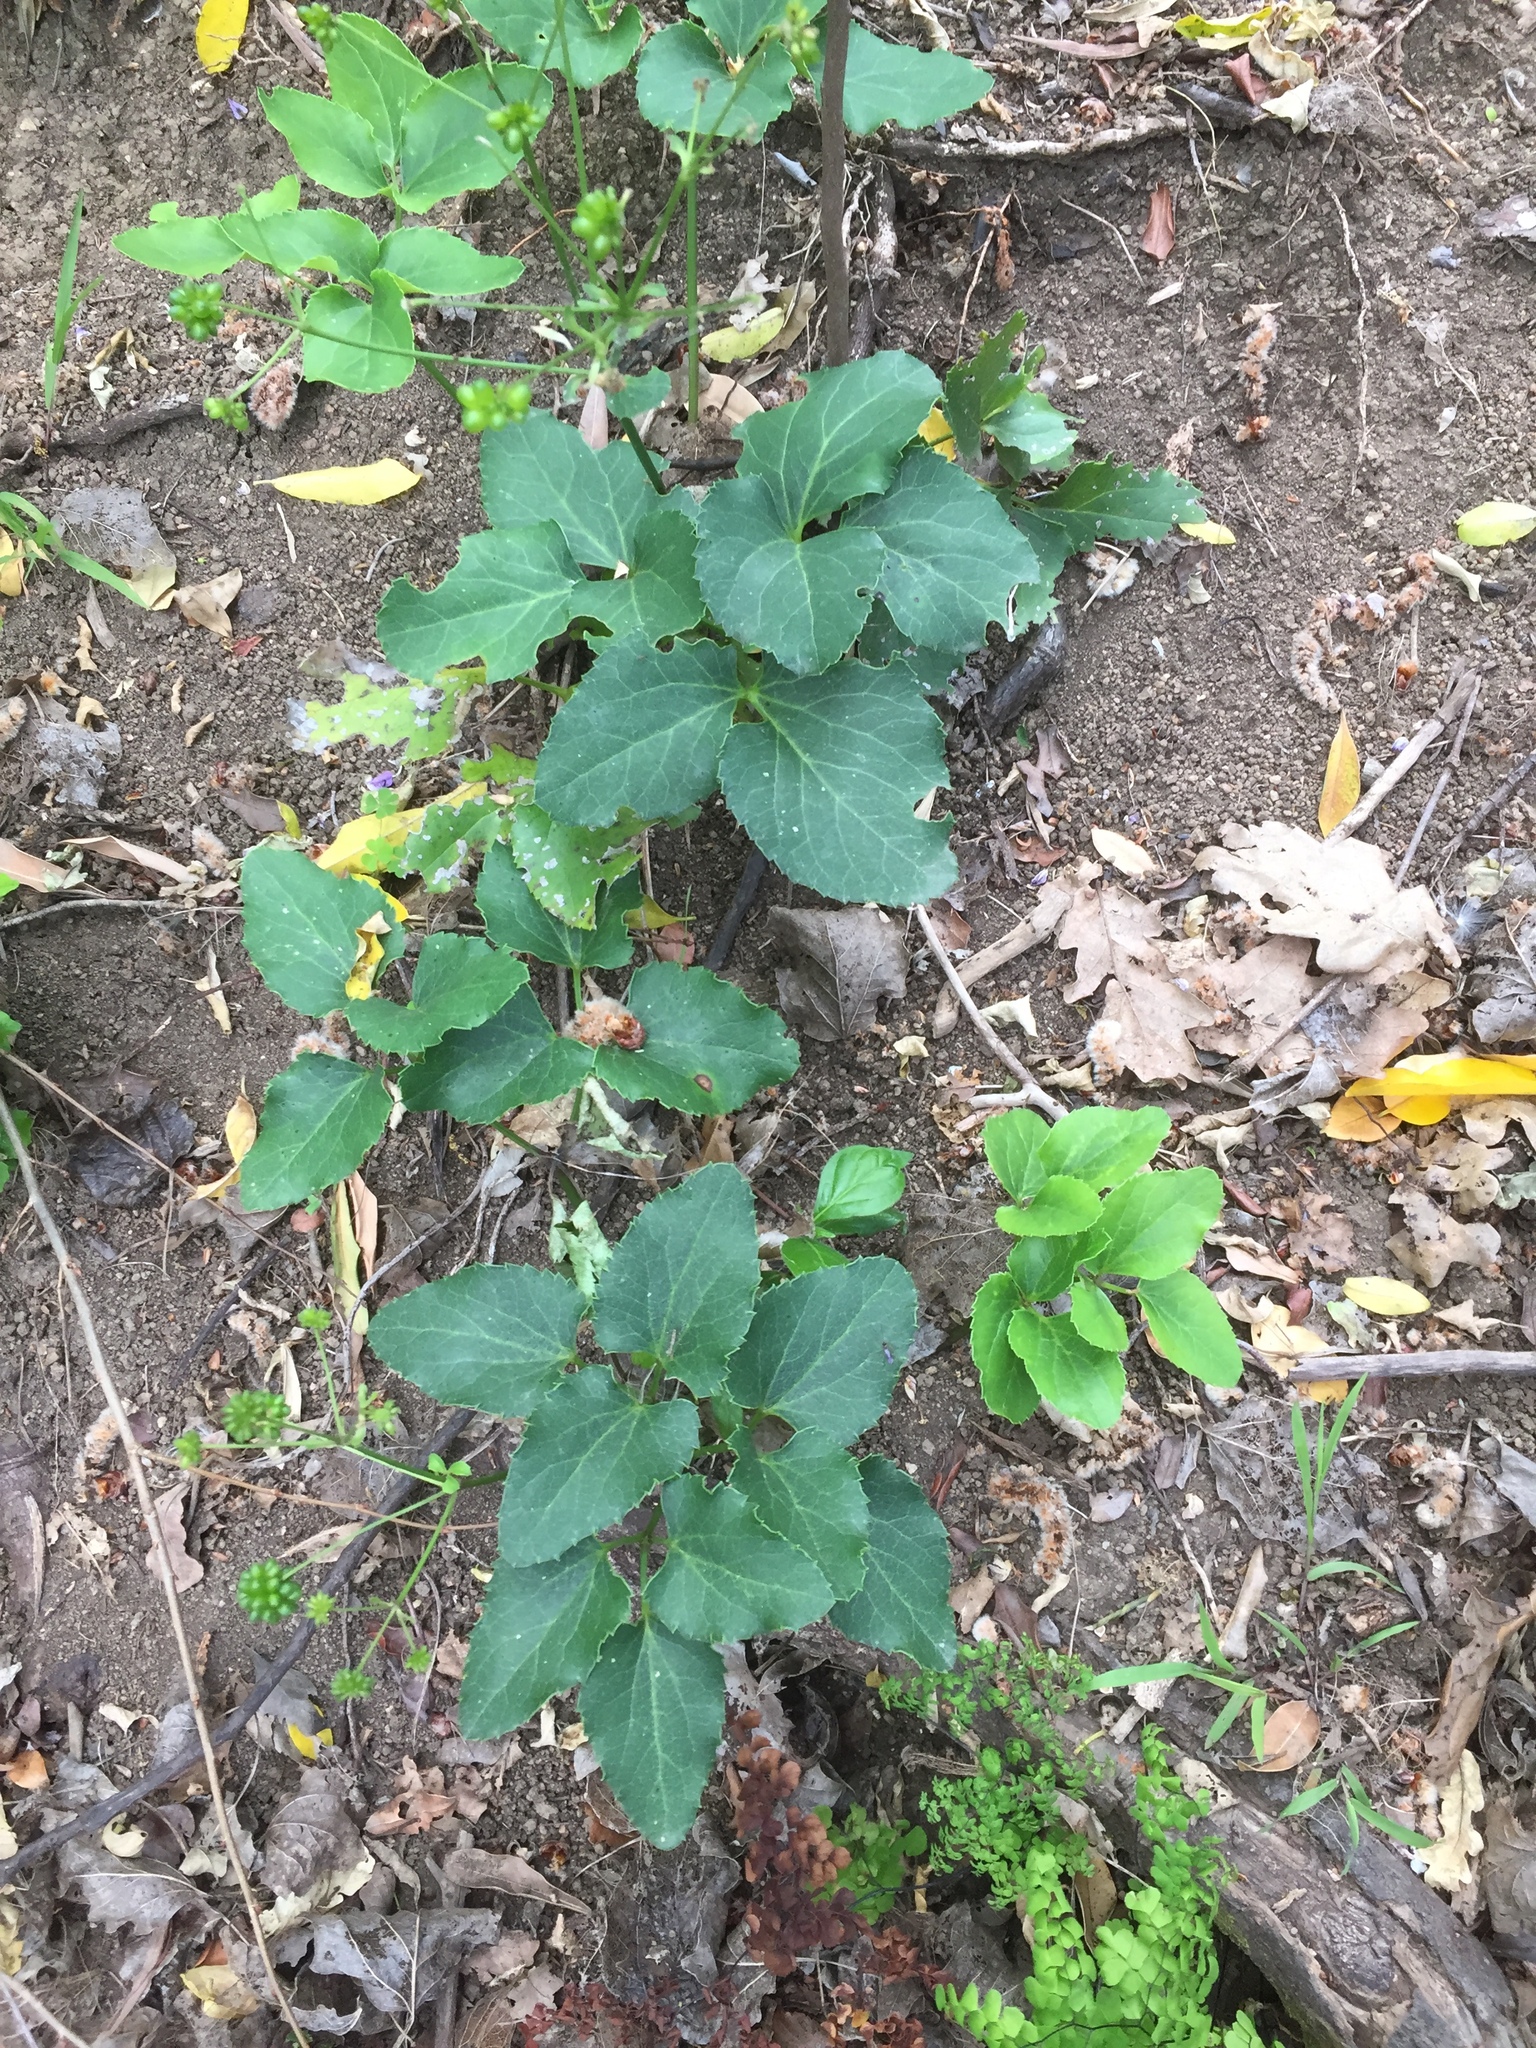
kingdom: Plantae
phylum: Tracheophyta
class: Magnoliopsida
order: Ranunculales
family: Ranunculaceae
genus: Knowltonia
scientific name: Knowltonia vesicatoria
